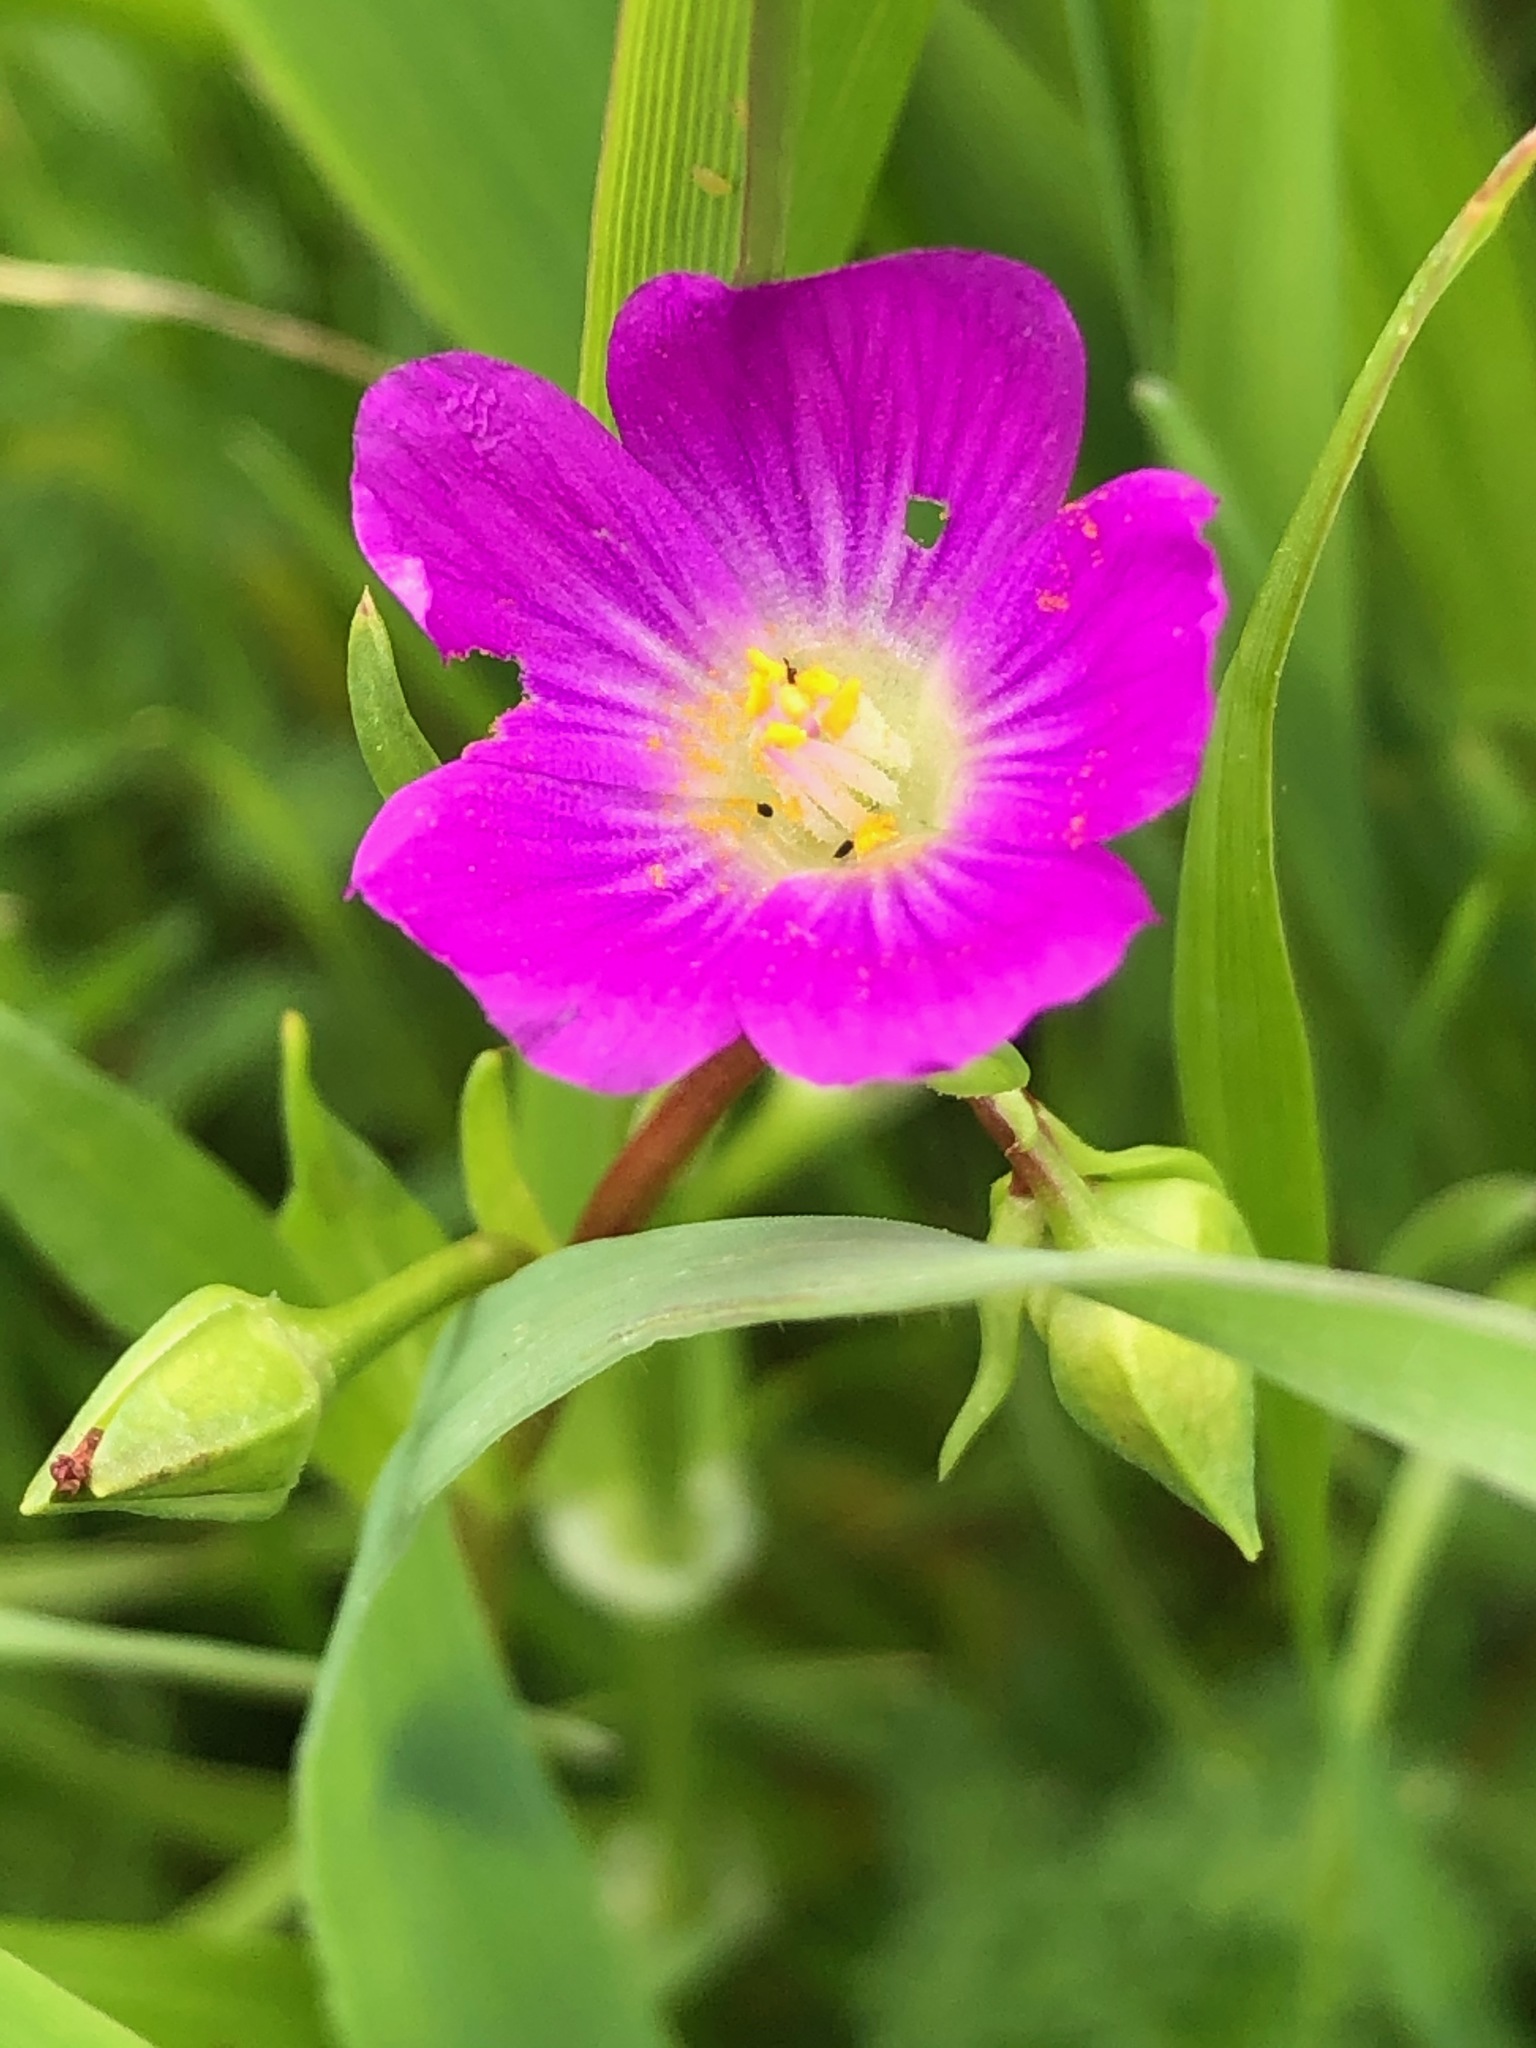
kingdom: Plantae
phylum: Tracheophyta
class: Magnoliopsida
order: Caryophyllales
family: Montiaceae
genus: Calandrinia
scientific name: Calandrinia menziesii
